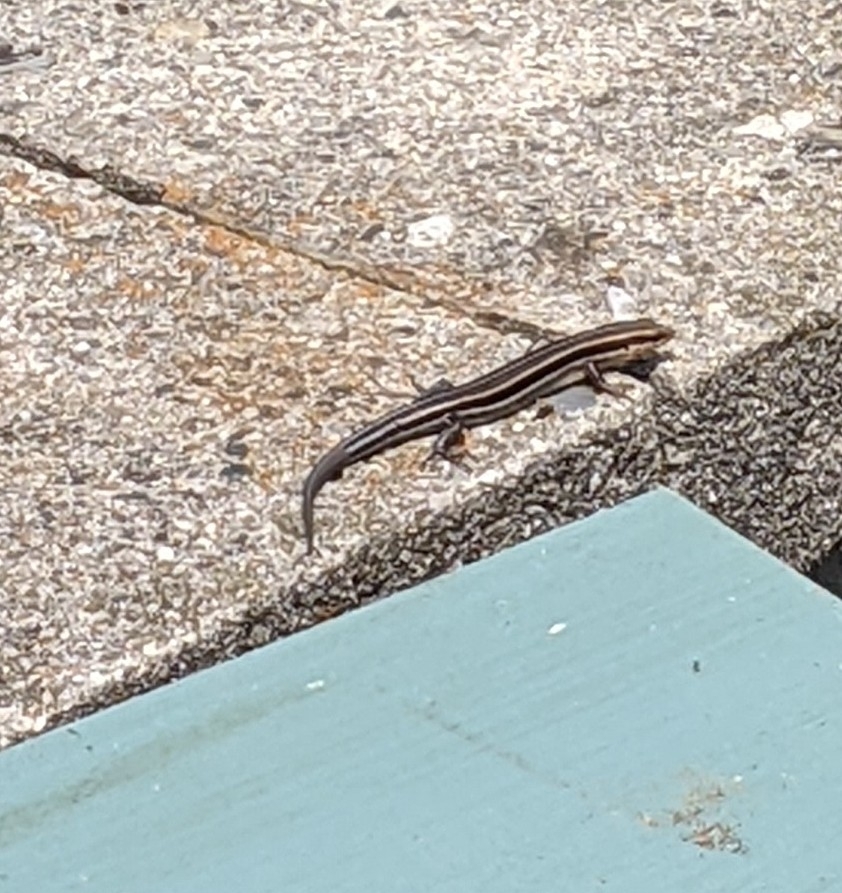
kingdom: Animalia
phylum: Chordata
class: Squamata
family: Scincidae
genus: Plestiodon
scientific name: Plestiodon fasciatus
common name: Five-lined skink
